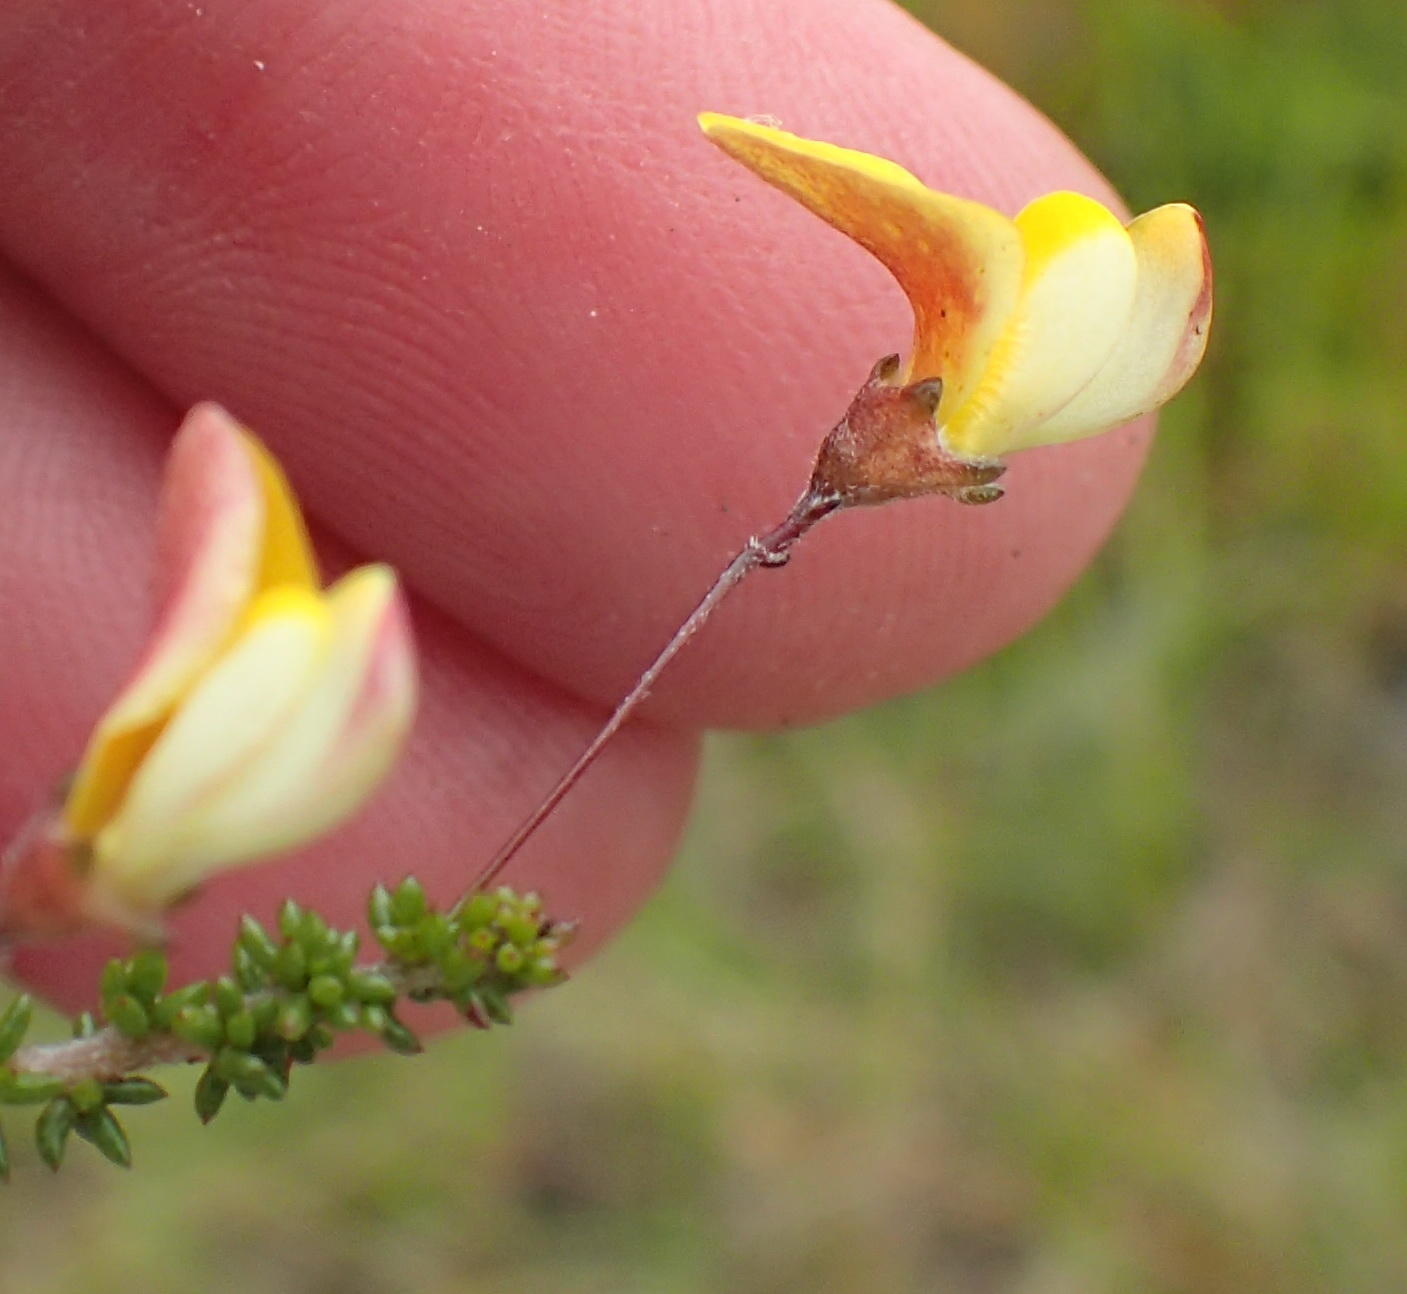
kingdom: Plantae
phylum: Tracheophyta
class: Magnoliopsida
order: Fabales
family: Fabaceae
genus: Aspalathus
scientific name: Aspalathus tenuissima
